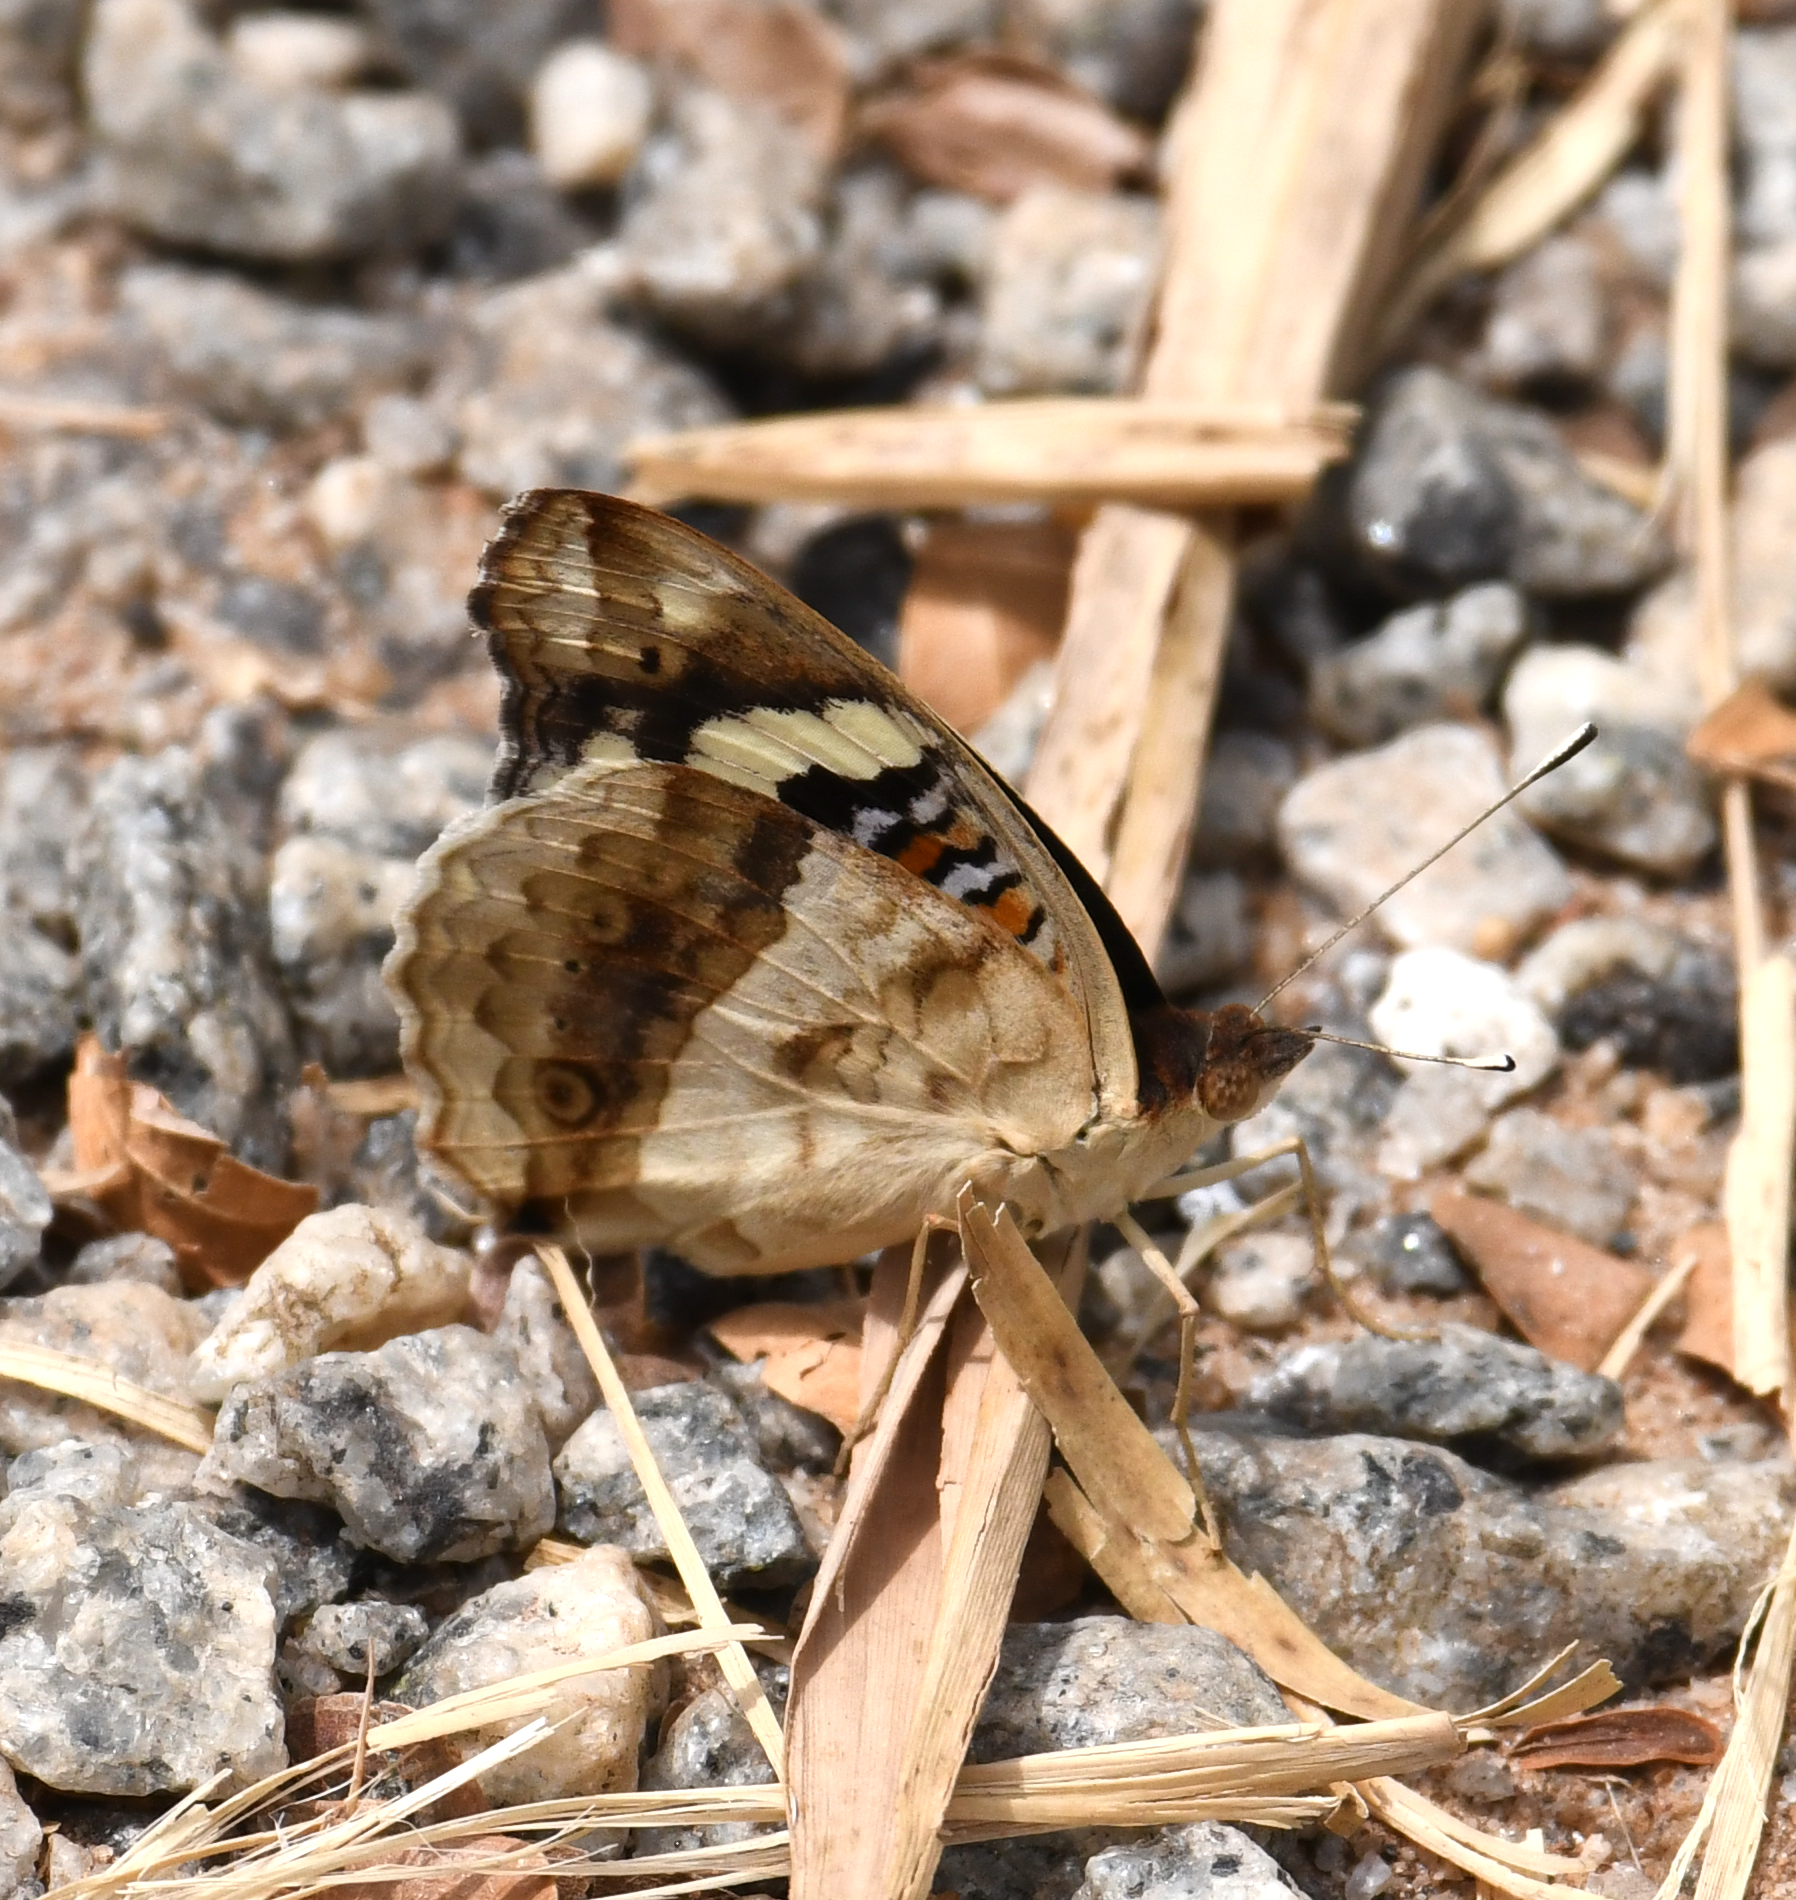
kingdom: Animalia
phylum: Arthropoda
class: Insecta
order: Lepidoptera
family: Nymphalidae
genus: Junonia
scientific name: Junonia oenone
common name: Dark blue pansy
